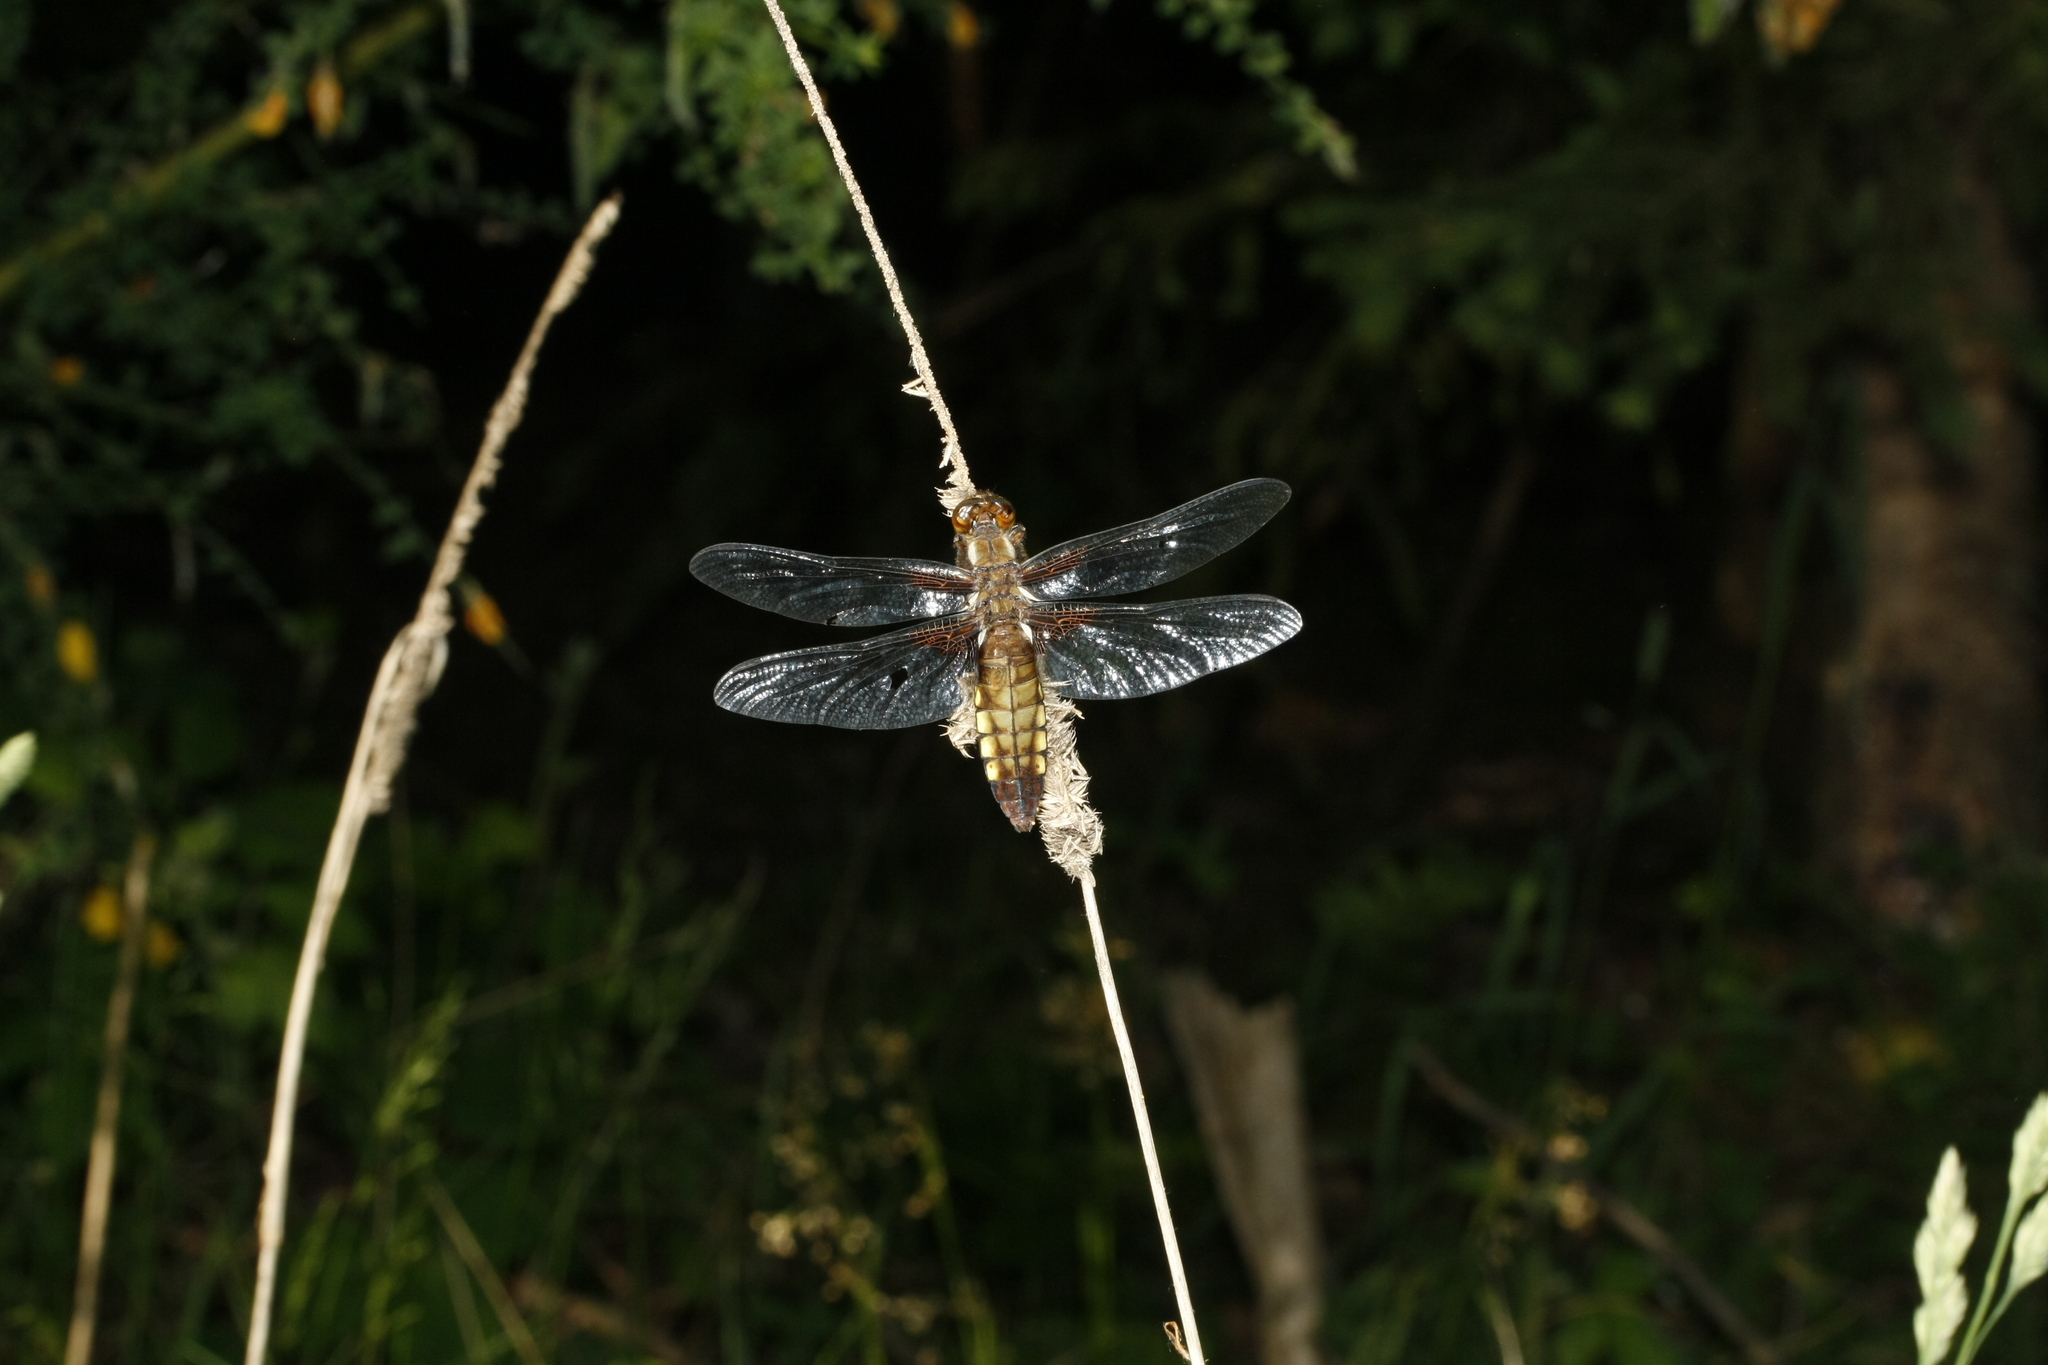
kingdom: Animalia
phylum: Arthropoda
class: Insecta
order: Odonata
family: Libellulidae
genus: Libellula
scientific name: Libellula depressa
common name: Broad-bodied chaser
